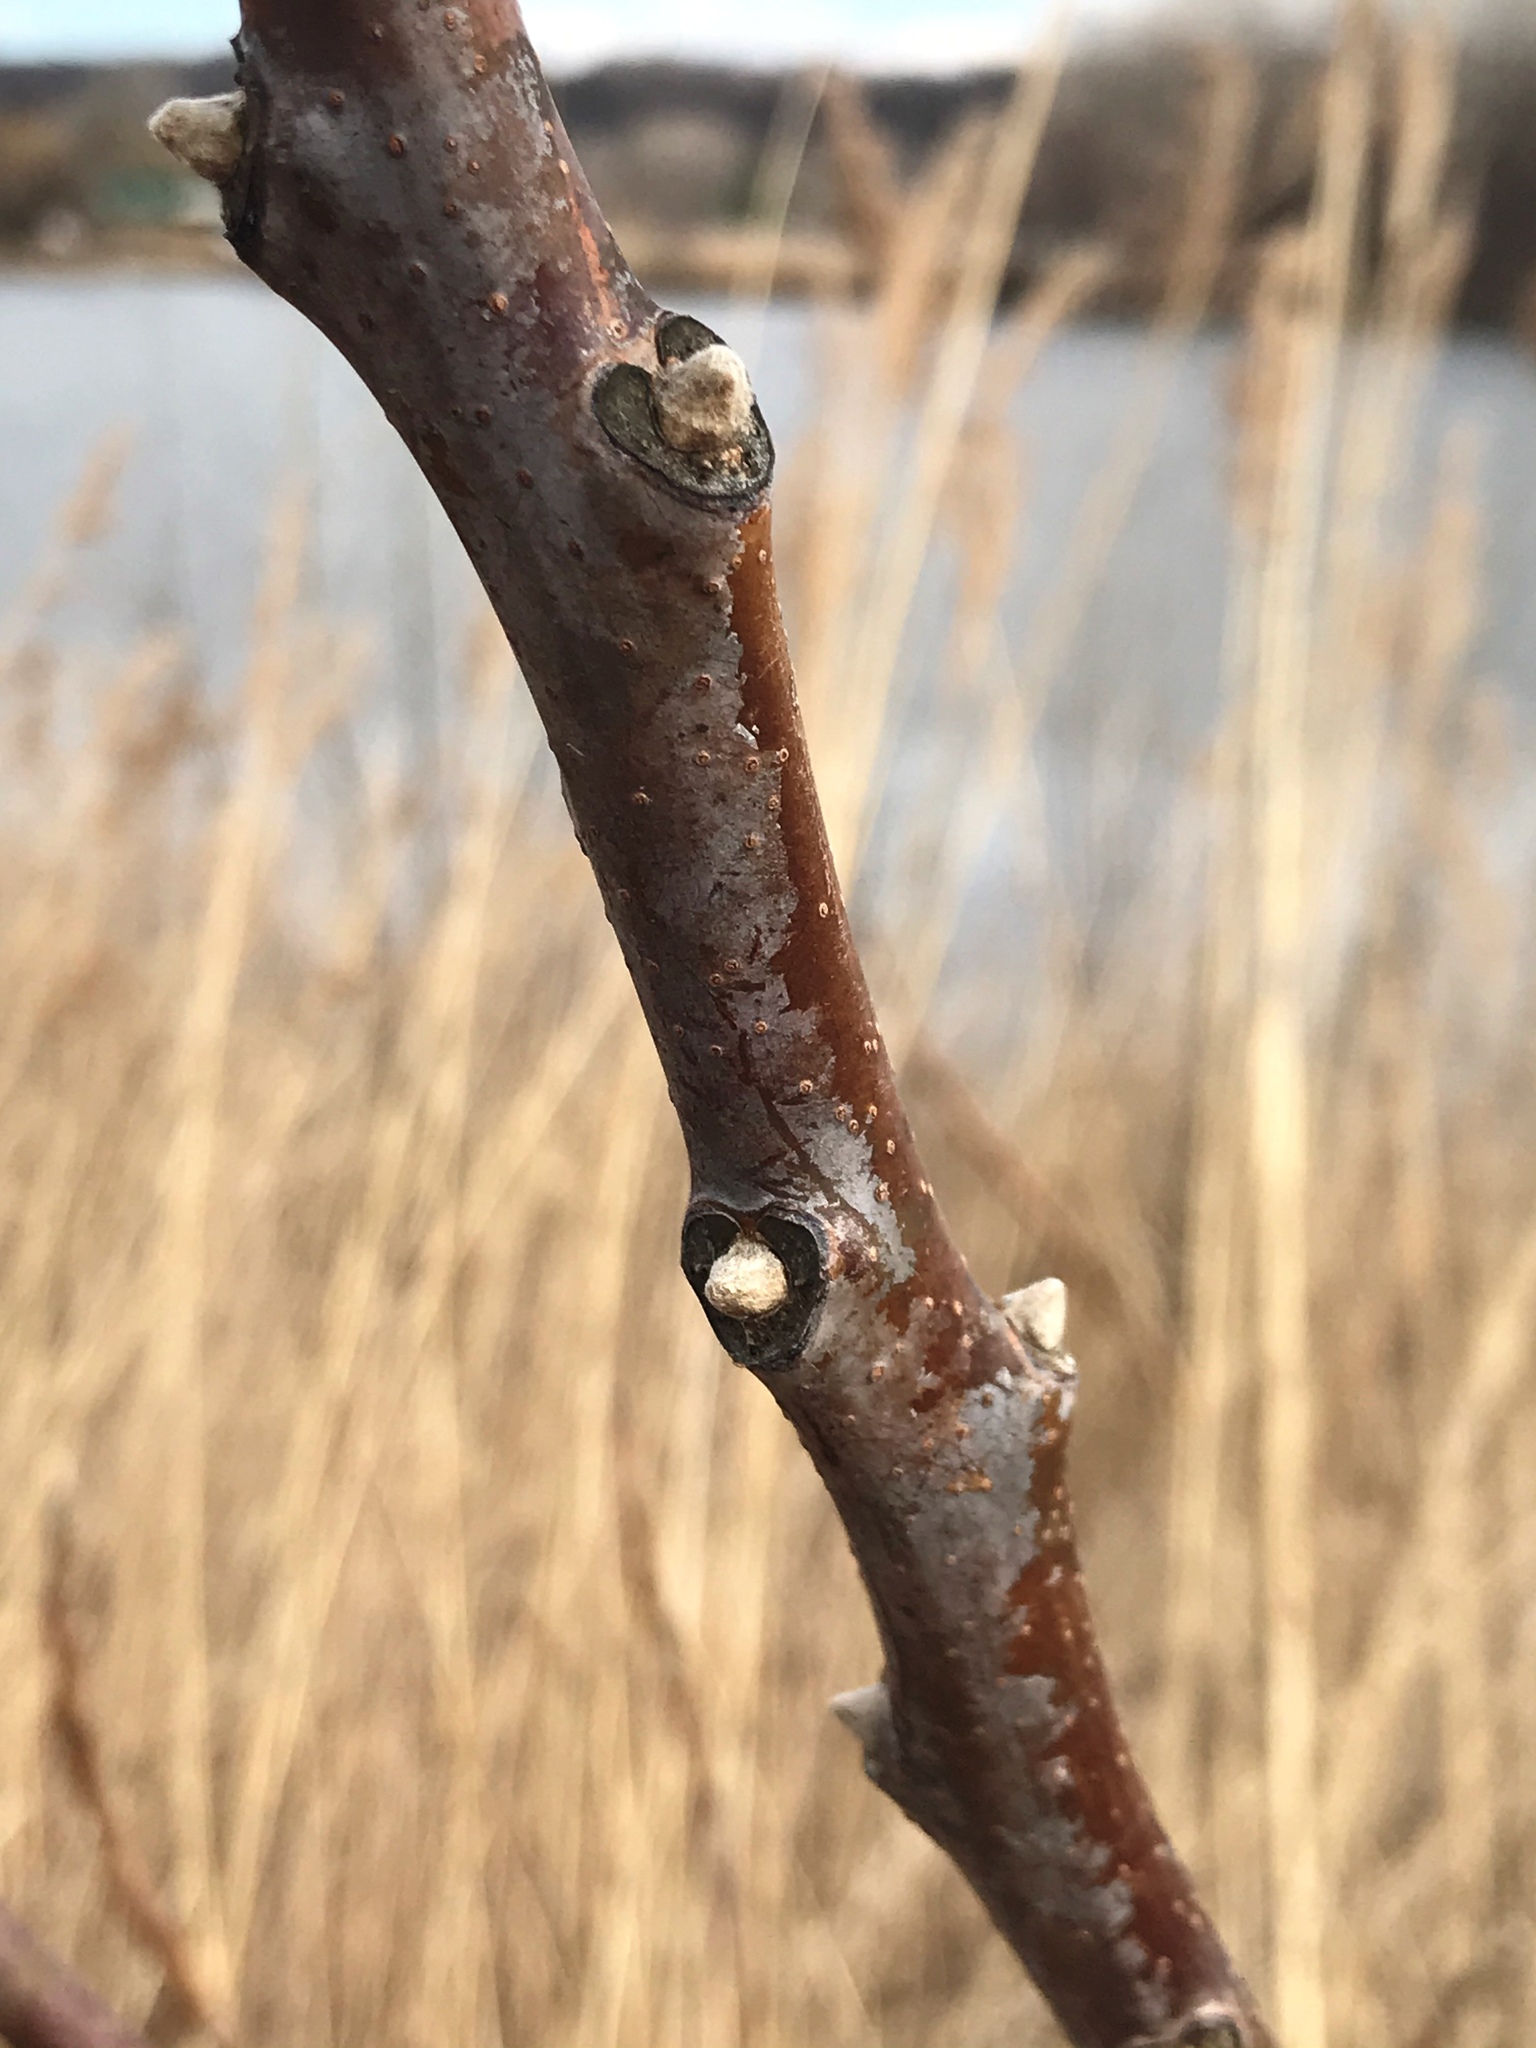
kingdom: Plantae
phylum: Tracheophyta
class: Magnoliopsida
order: Sapindales
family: Anacardiaceae
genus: Rhus
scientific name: Rhus glabra
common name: Scarlet sumac
